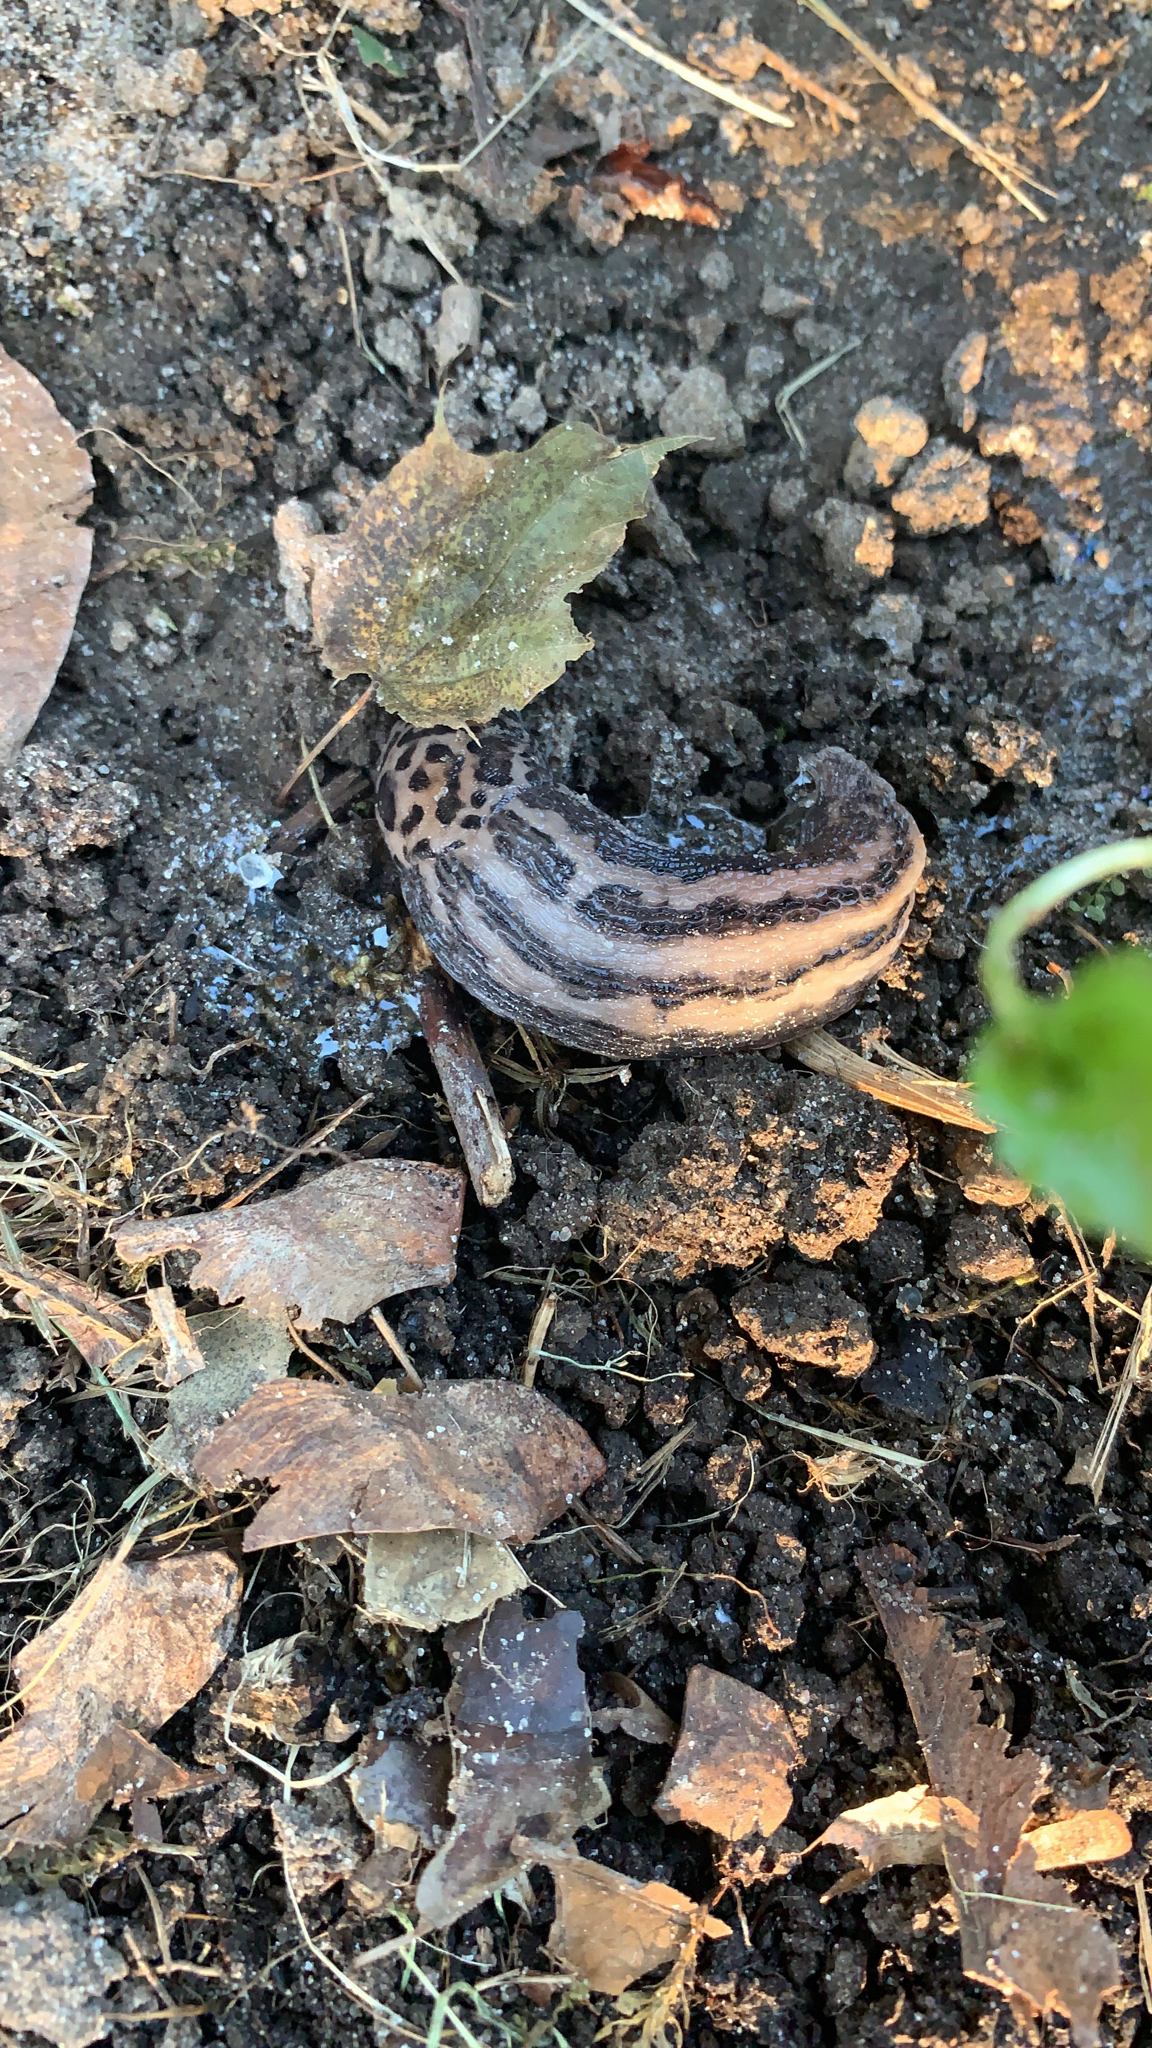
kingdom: Animalia
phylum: Mollusca
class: Gastropoda
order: Stylommatophora
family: Limacidae
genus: Limax
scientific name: Limax maximus
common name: Great grey slug
